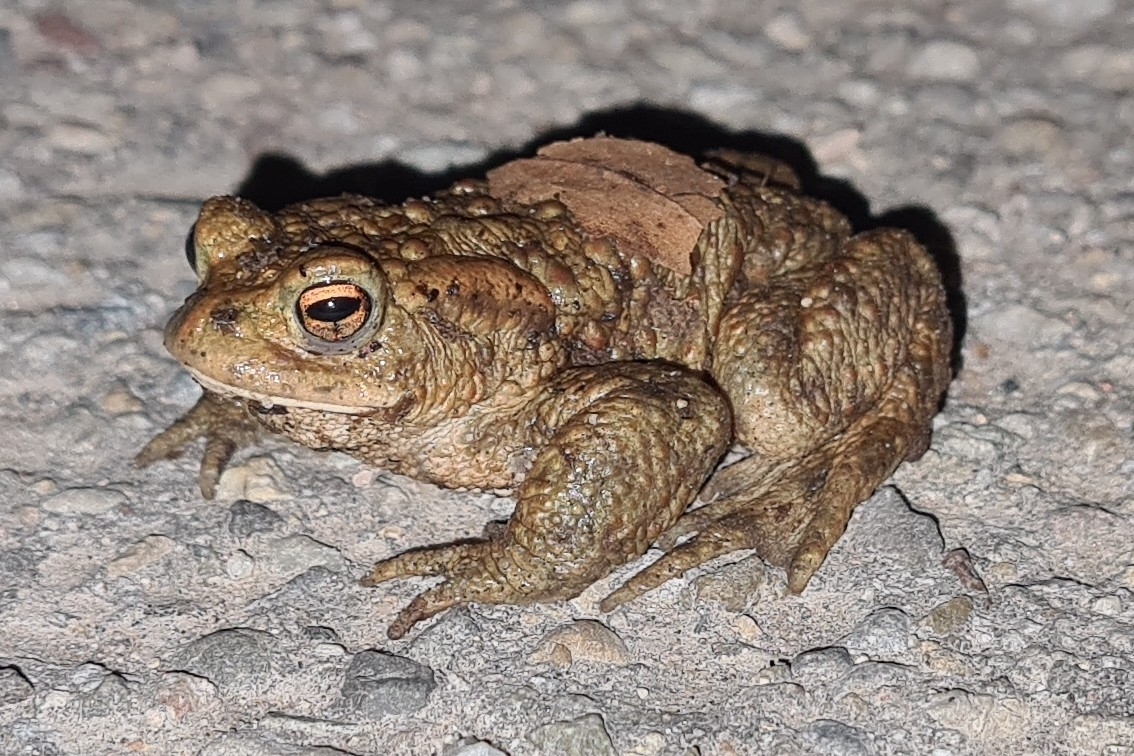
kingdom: Animalia
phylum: Chordata
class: Amphibia
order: Anura
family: Bufonidae
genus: Bufo
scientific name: Bufo bufo
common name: Common toad
